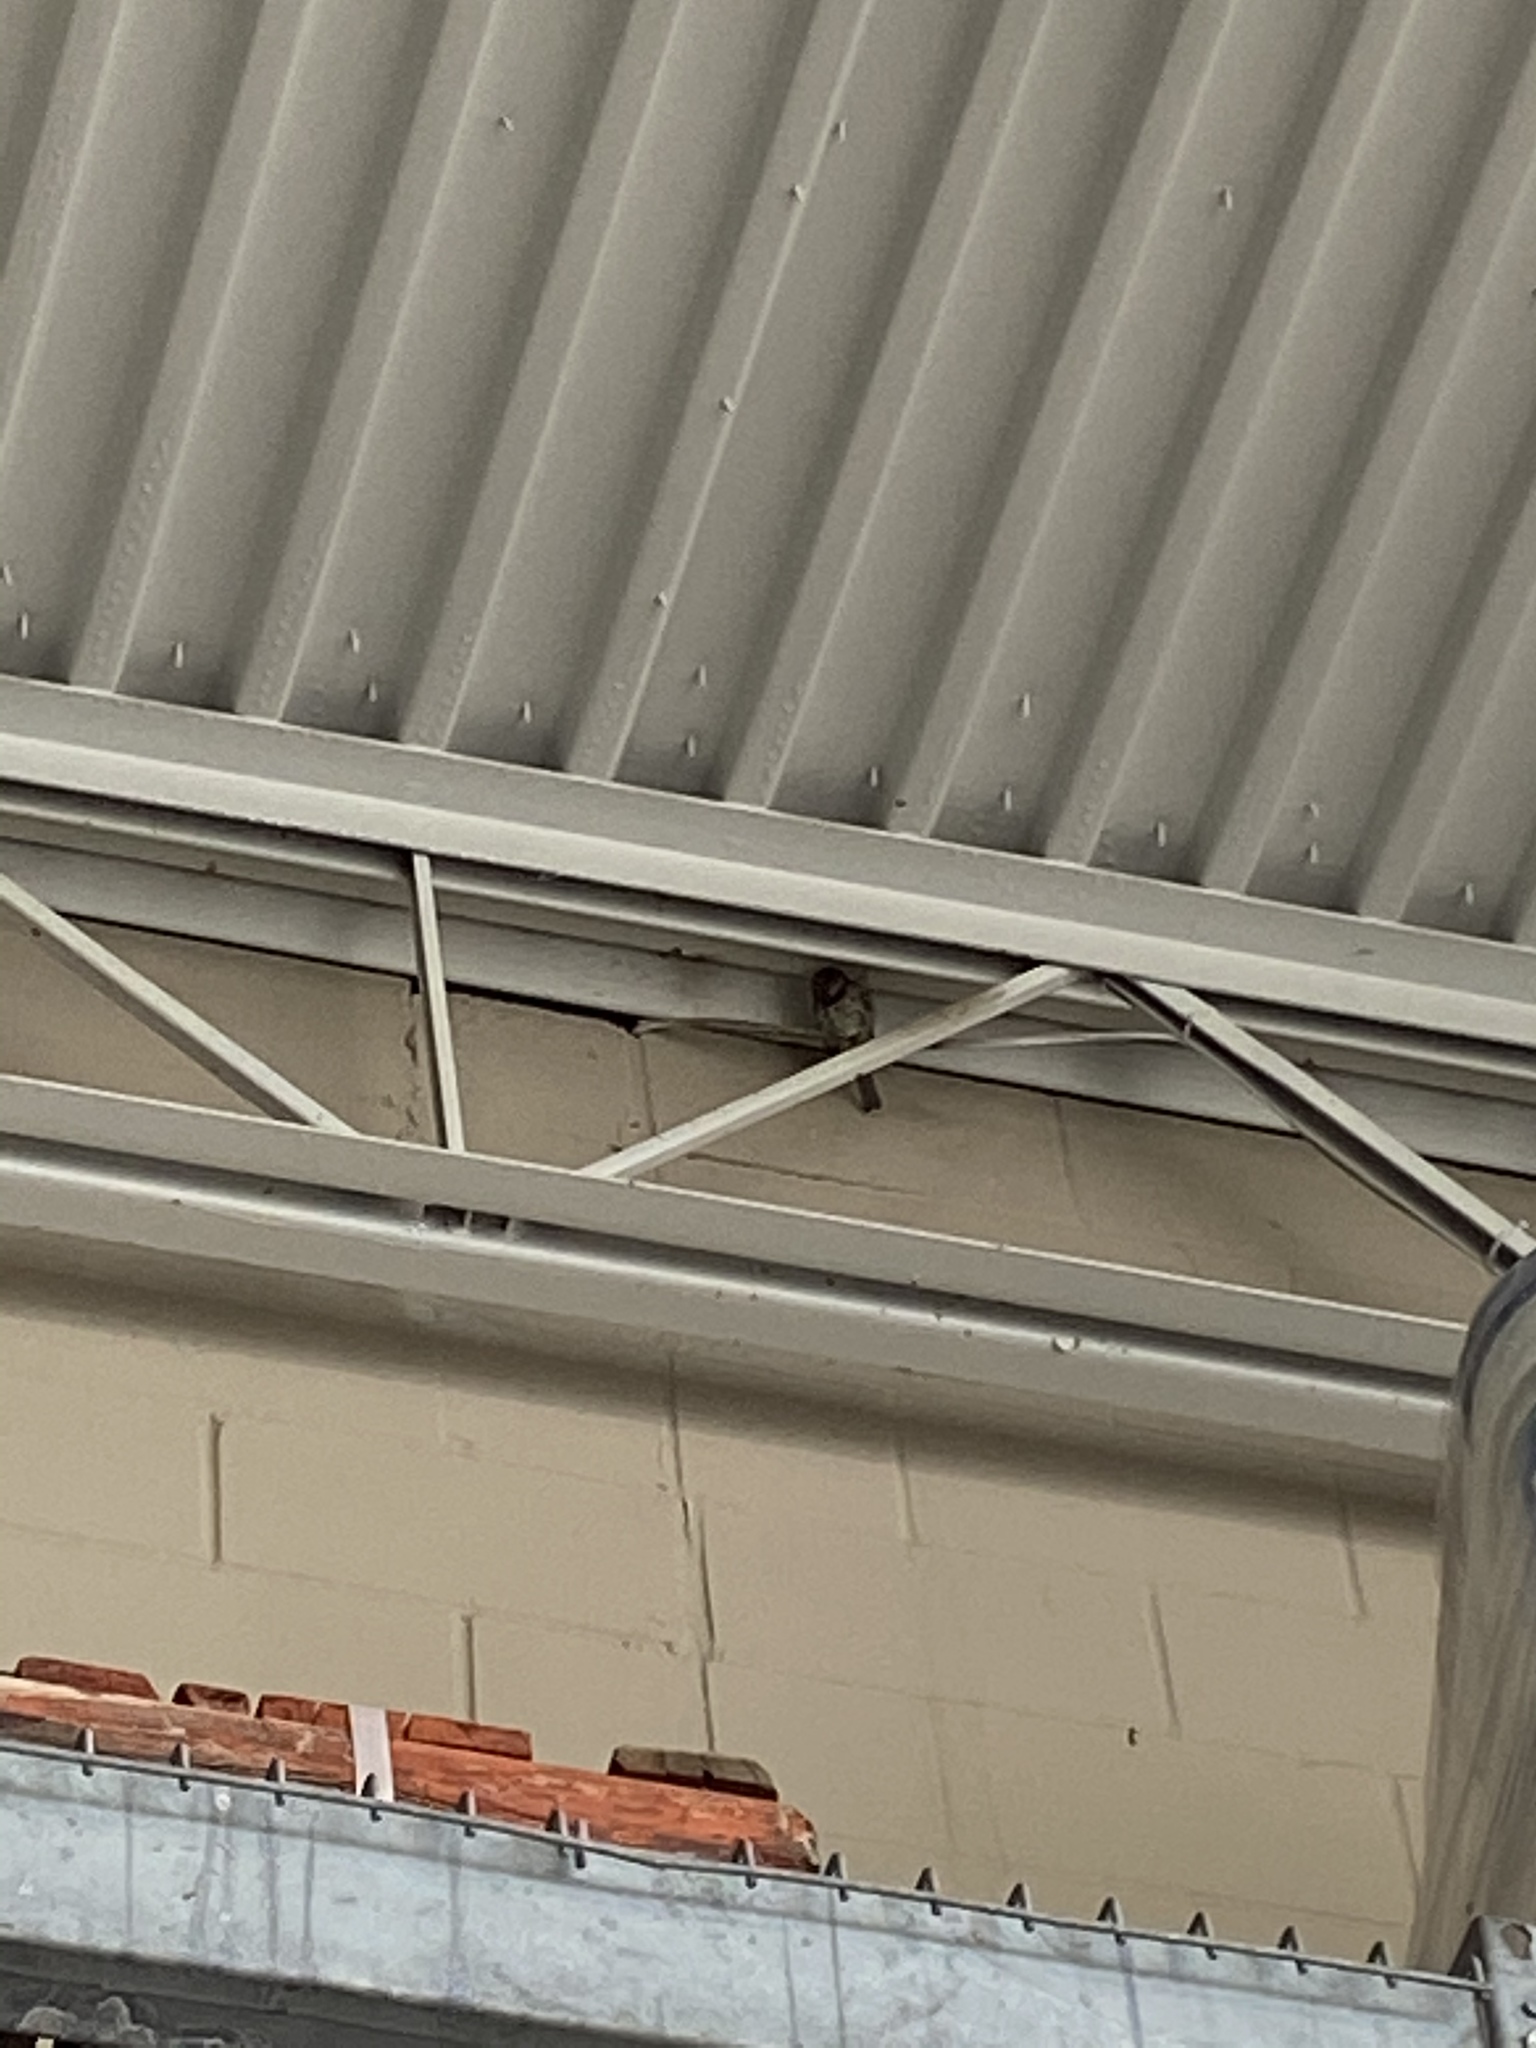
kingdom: Animalia
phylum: Chordata
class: Aves
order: Passeriformes
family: Passeridae
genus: Passer
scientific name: Passer domesticus
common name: House sparrow
